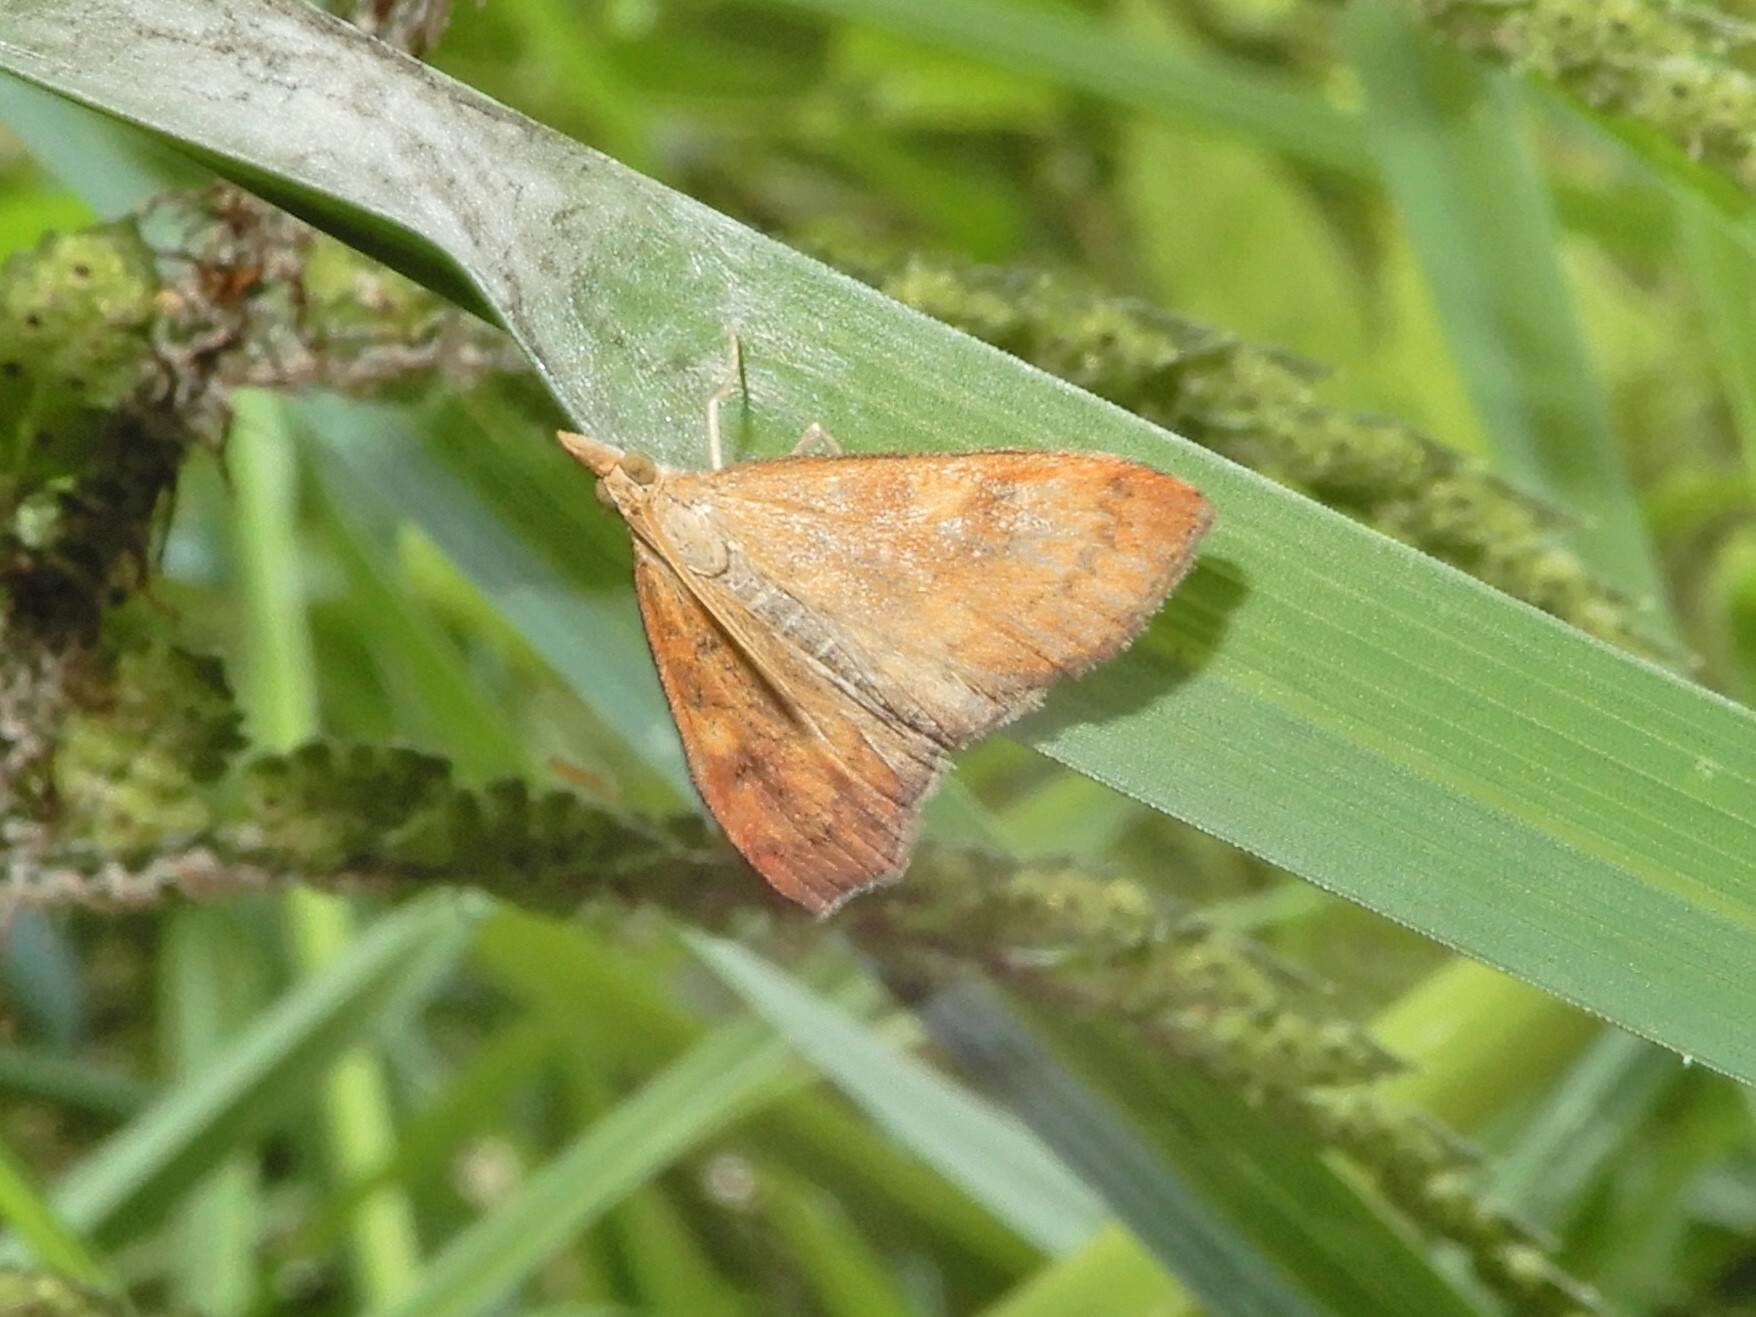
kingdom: Animalia
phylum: Arthropoda
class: Insecta
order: Lepidoptera
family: Crambidae
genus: Udea
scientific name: Udea Mnesictena flavidalis
